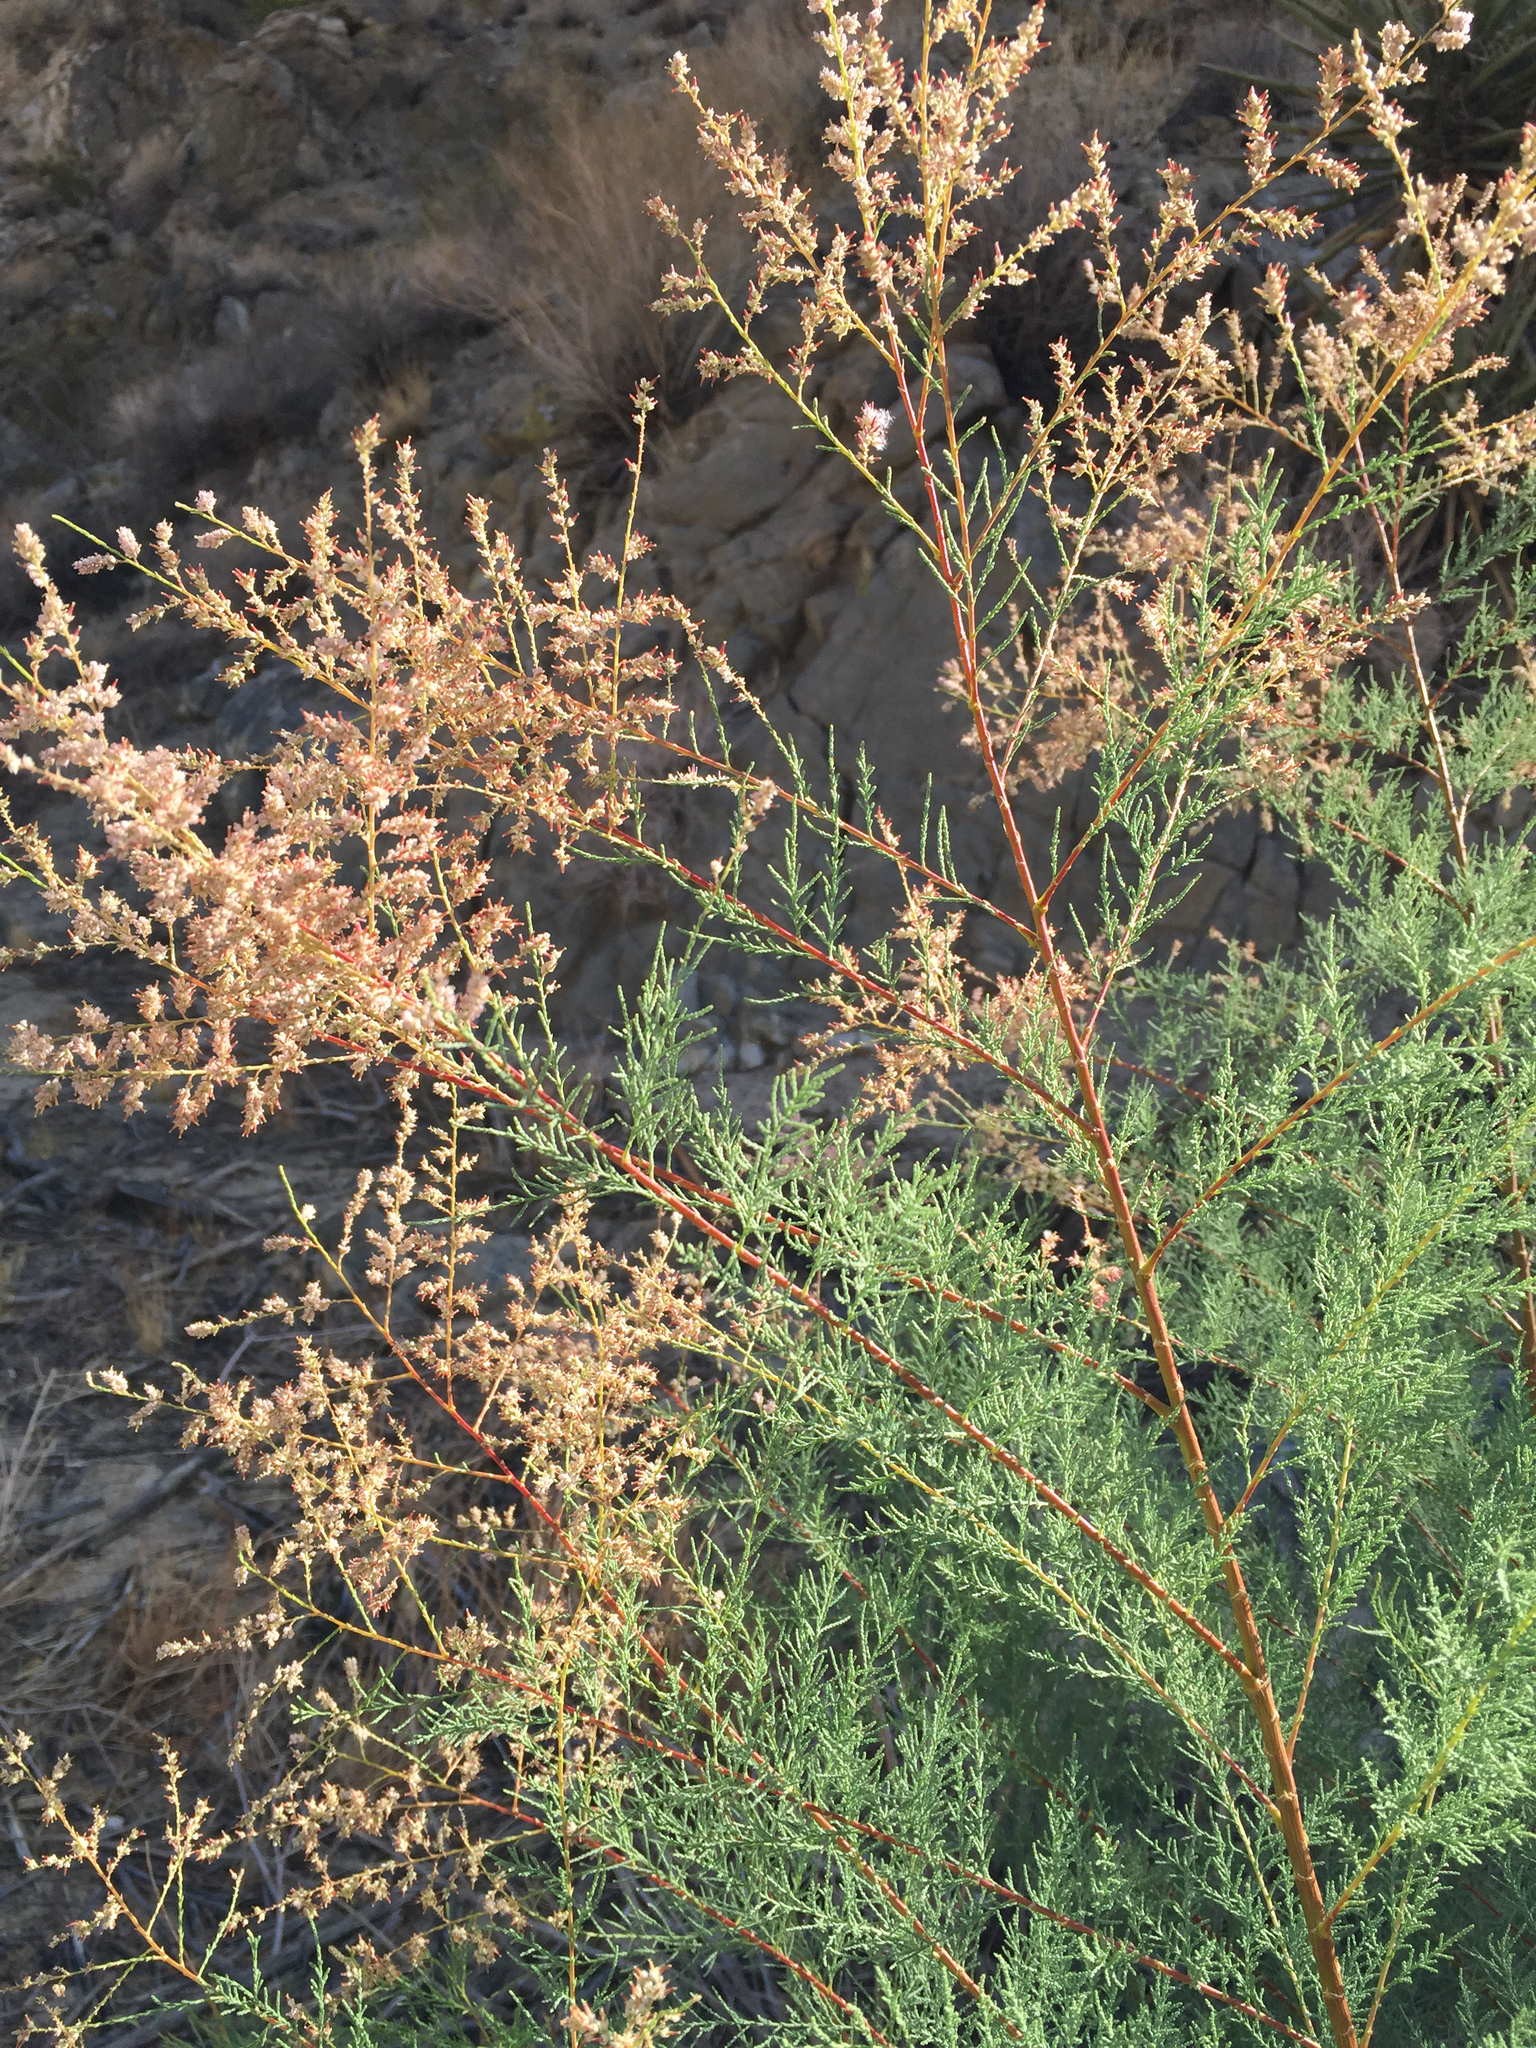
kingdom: Plantae
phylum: Tracheophyta
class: Magnoliopsida
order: Caryophyllales
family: Tamaricaceae
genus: Tamarix
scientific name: Tamarix ramosissima
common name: Pink tamarisk
